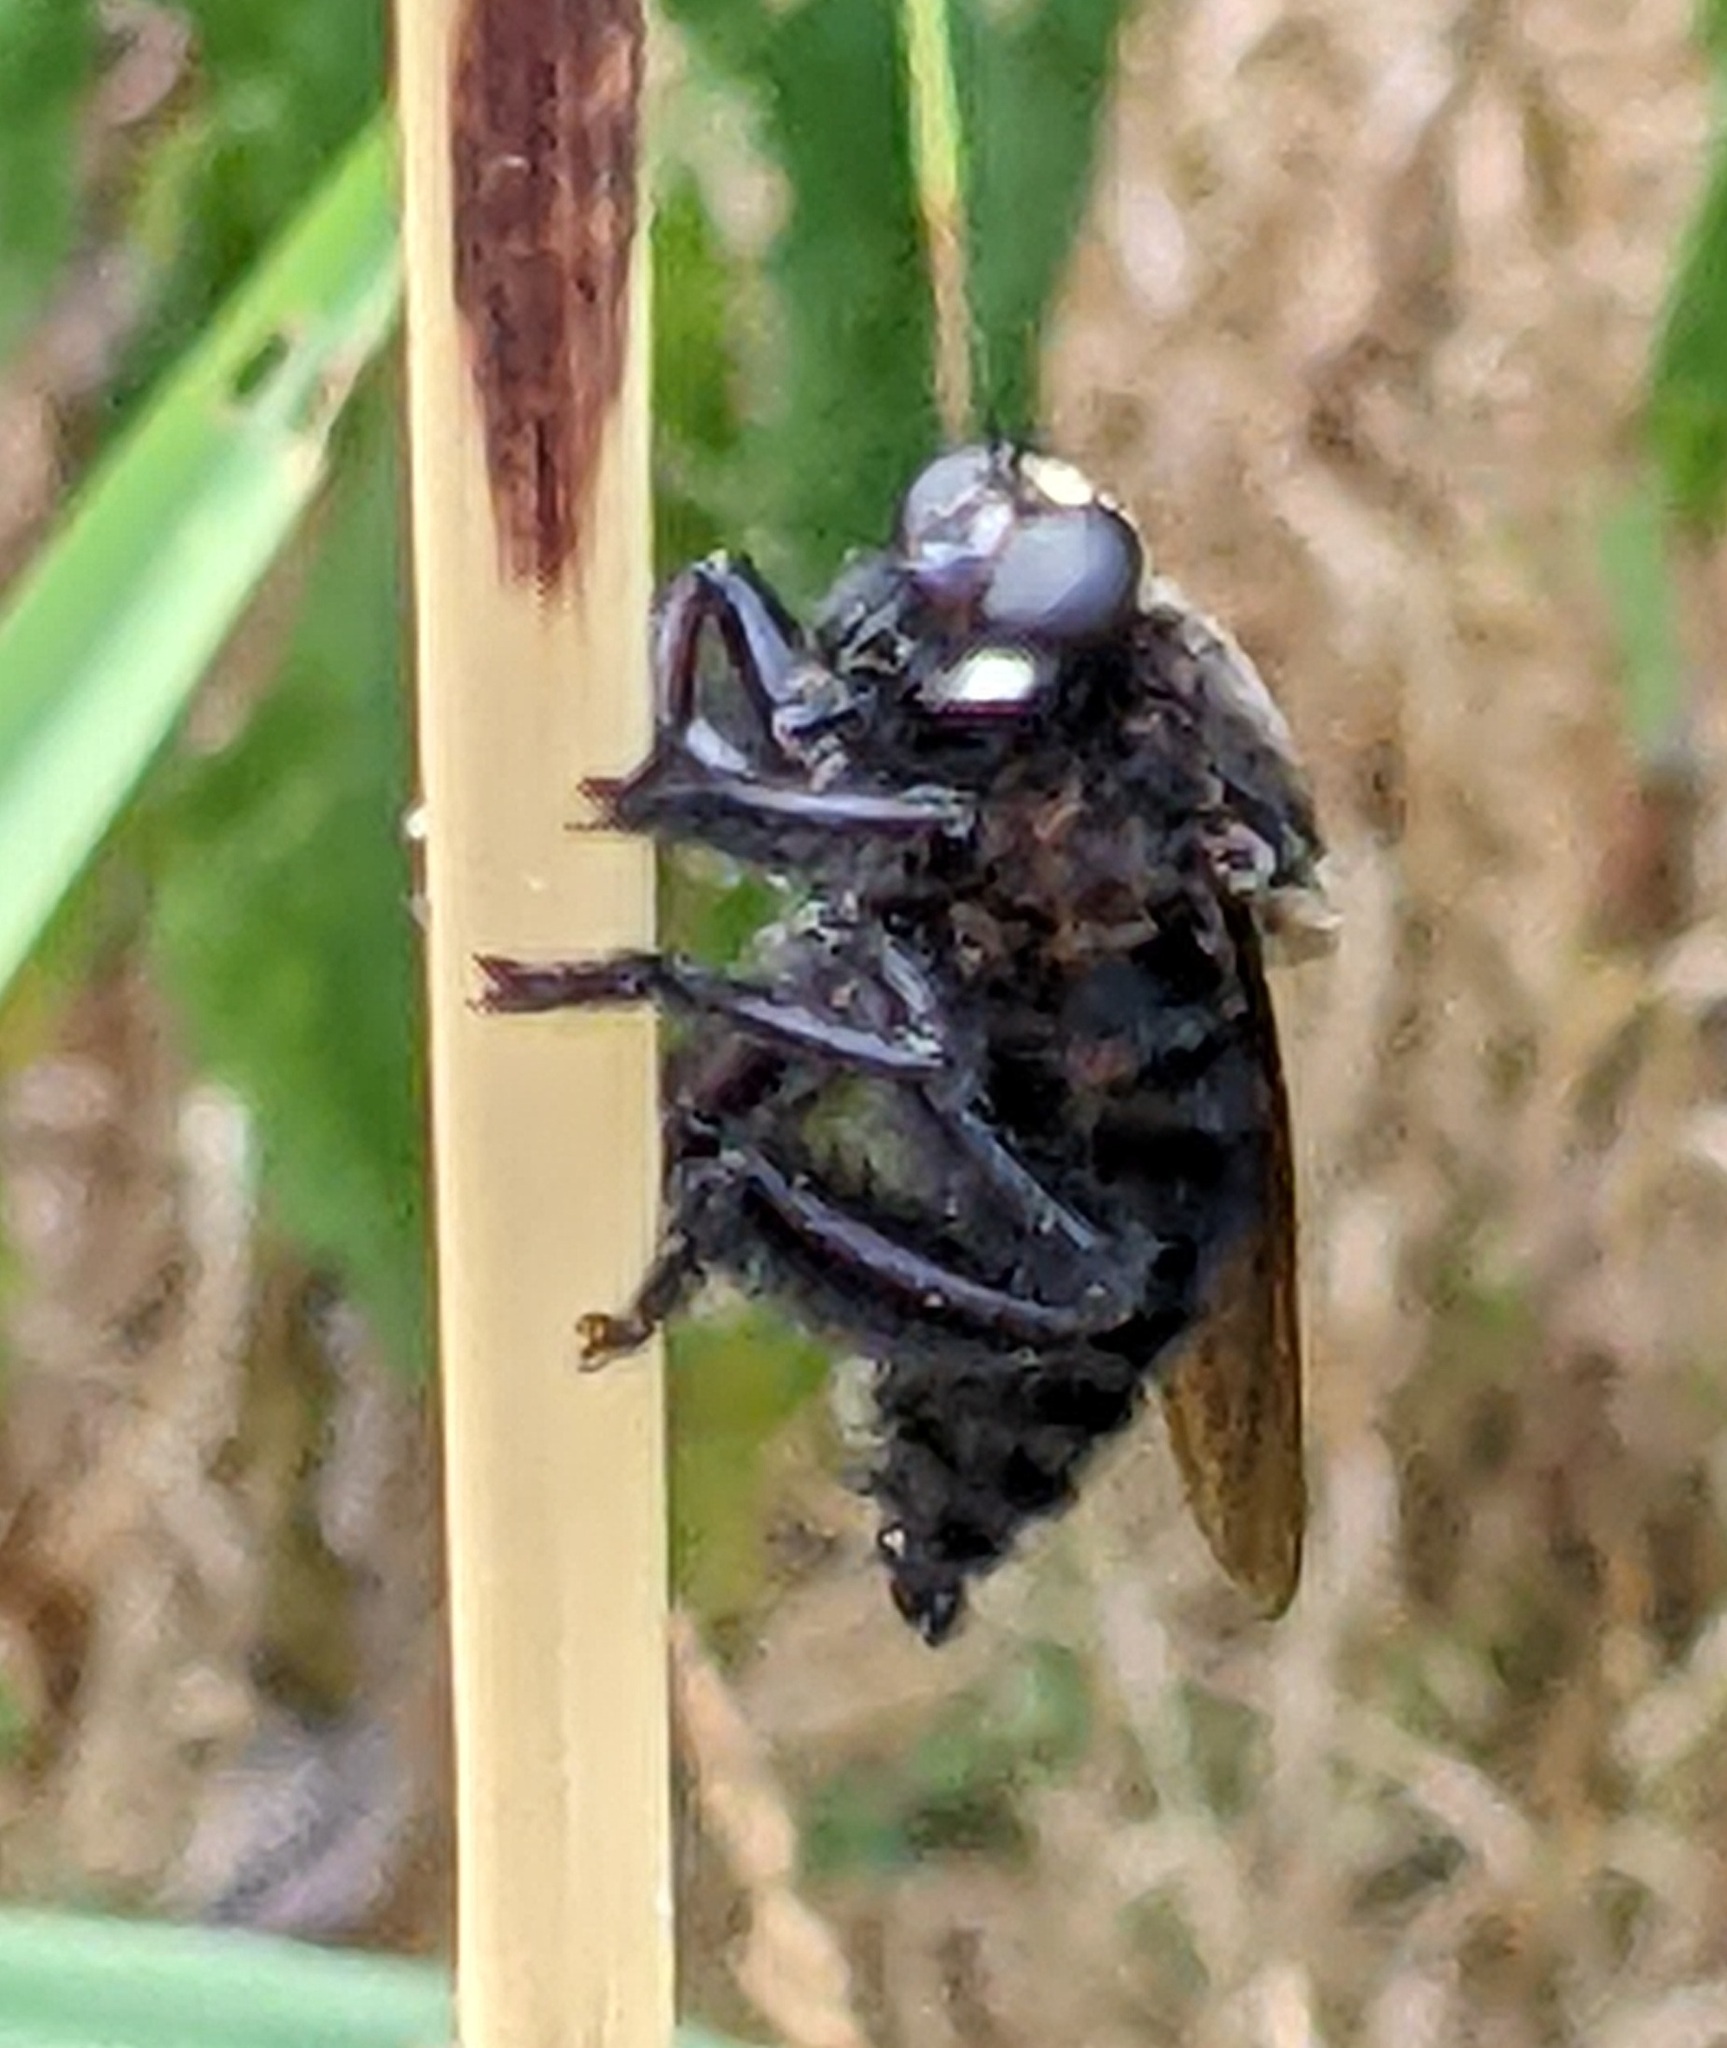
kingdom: Animalia
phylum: Arthropoda
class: Insecta
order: Diptera
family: Asilidae
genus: Mallophora
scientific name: Mallophora leschenaultii
